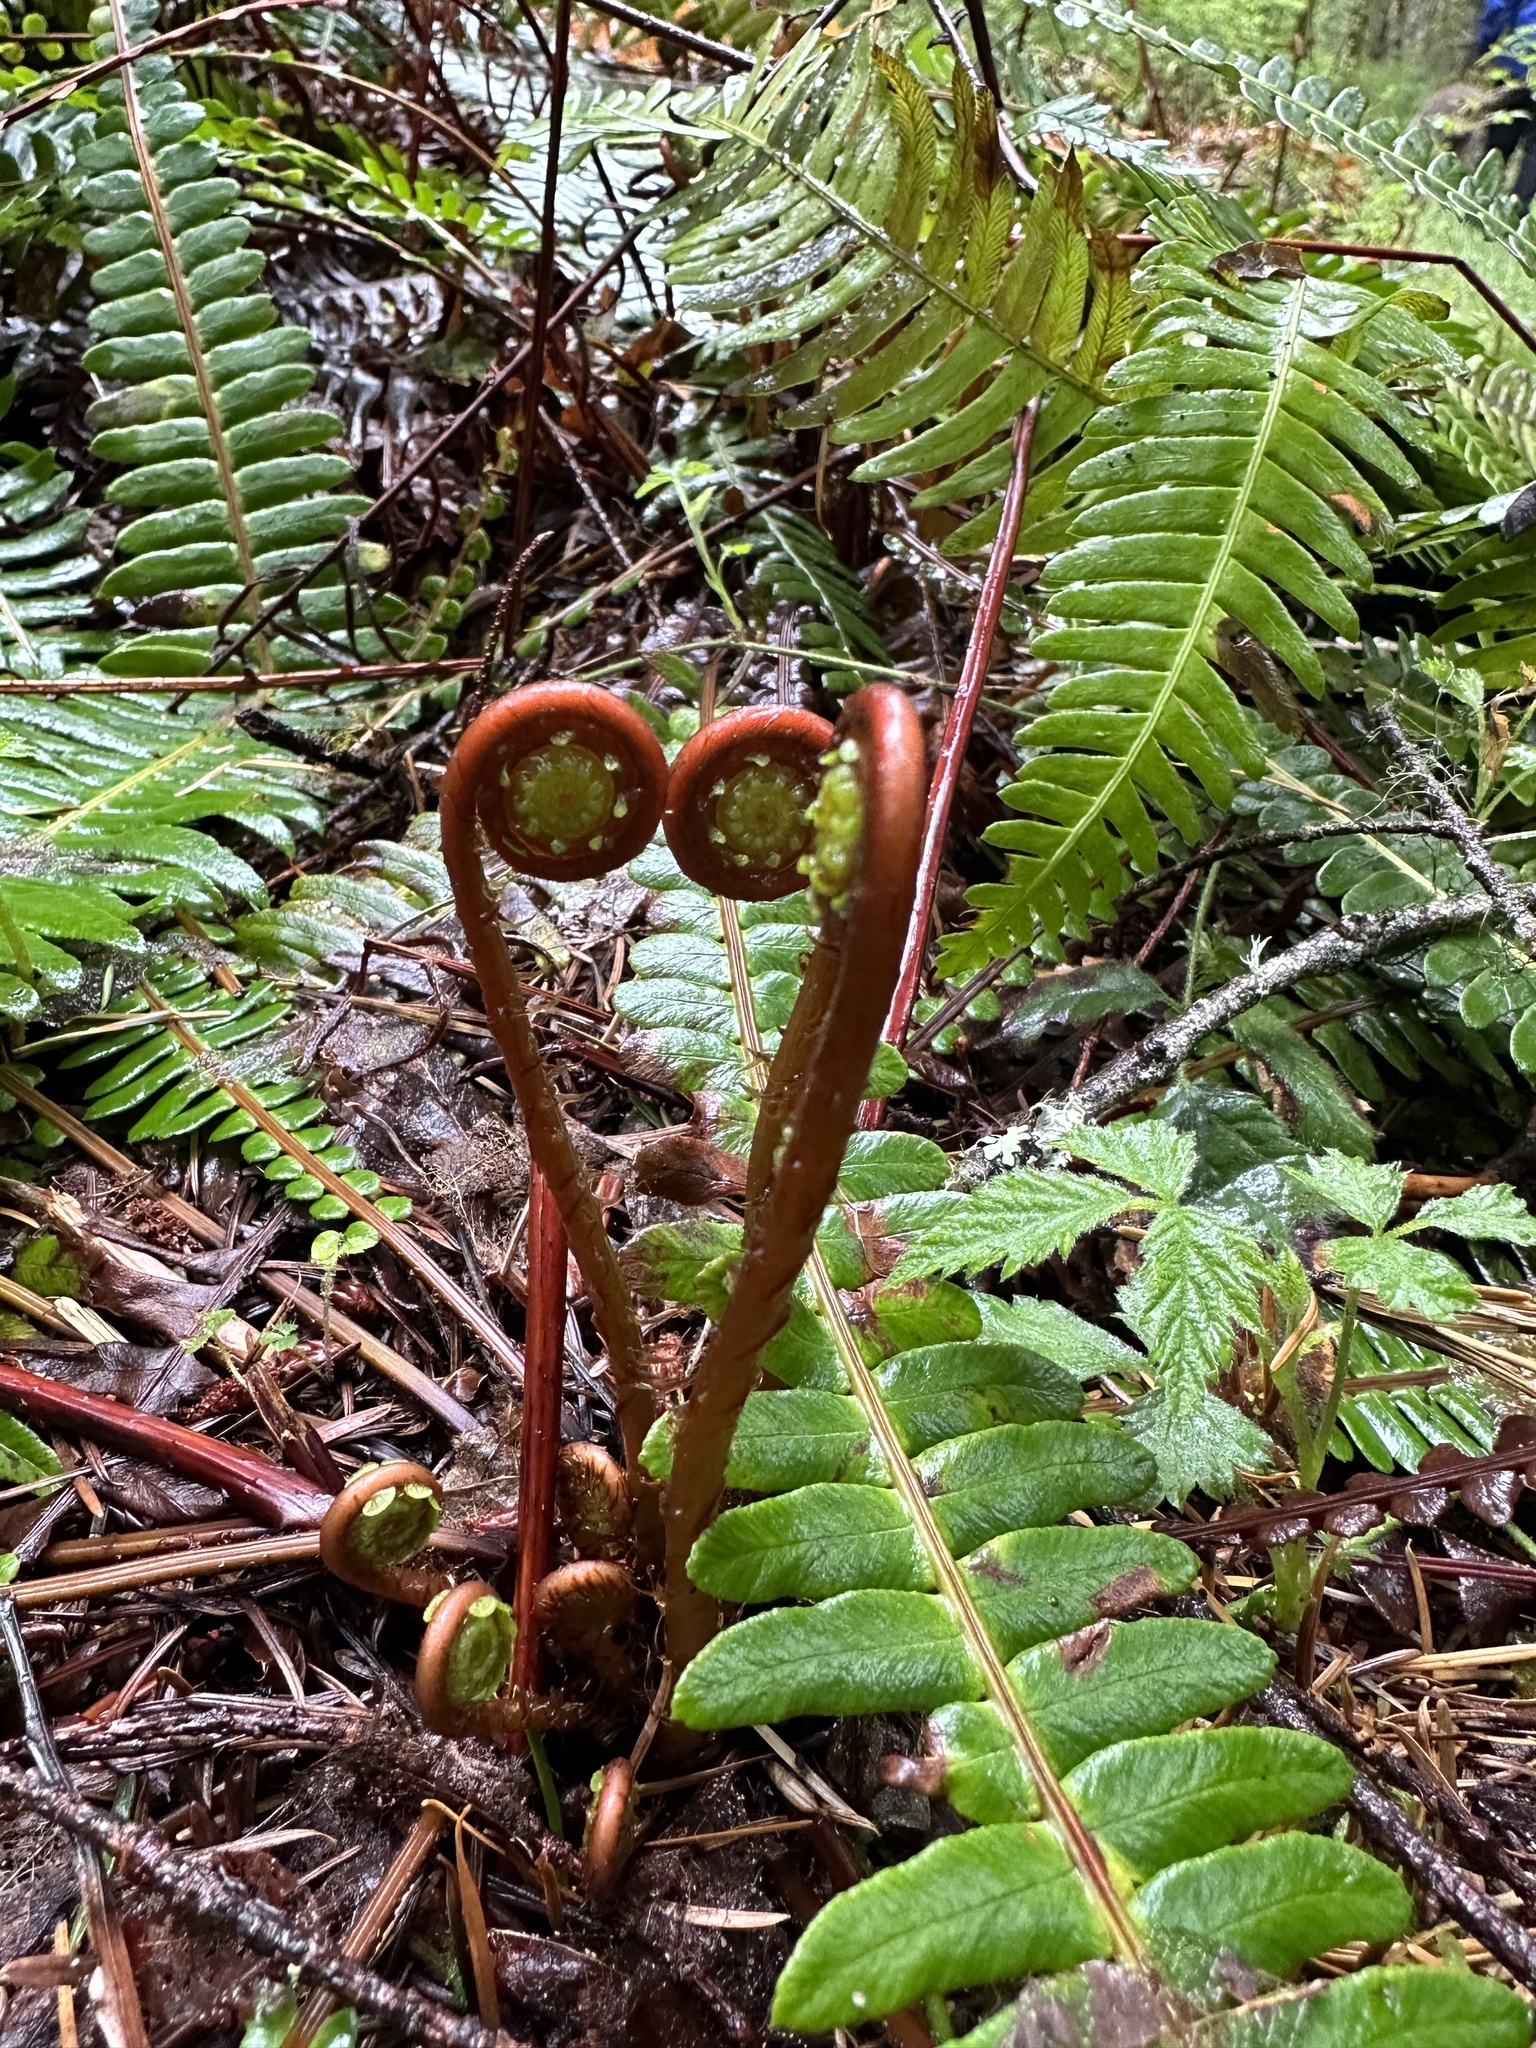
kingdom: Plantae
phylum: Tracheophyta
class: Polypodiopsida
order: Polypodiales
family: Blechnaceae
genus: Struthiopteris
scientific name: Struthiopteris spicant
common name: Deer fern
